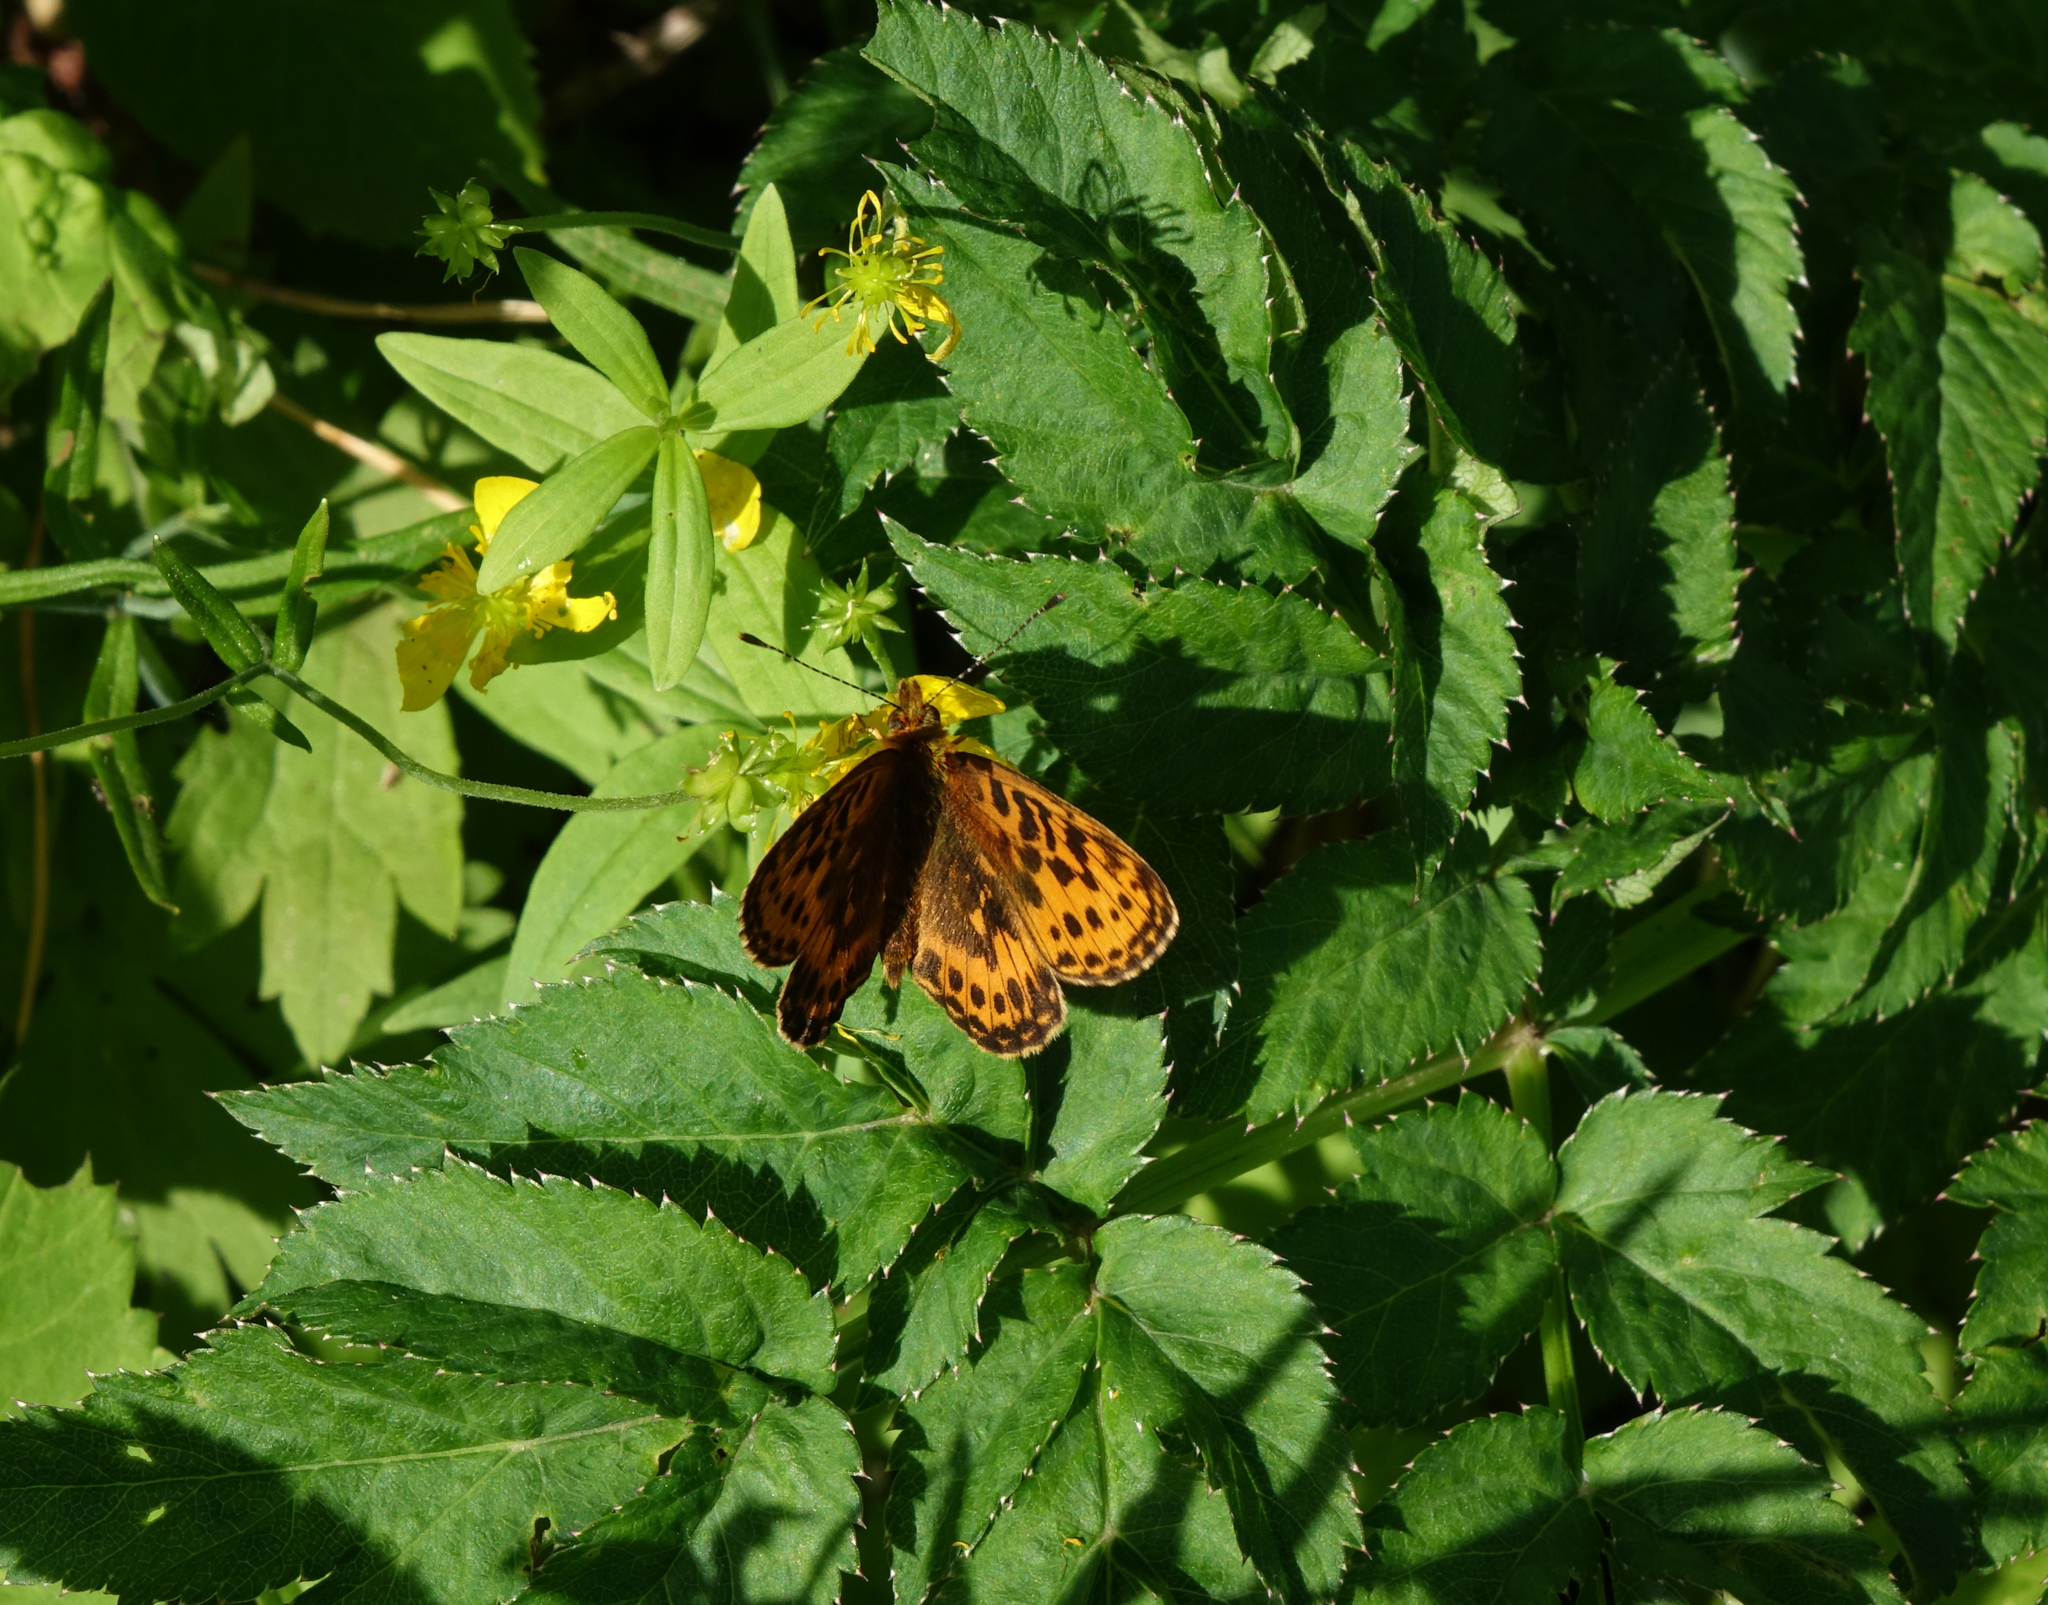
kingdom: Animalia
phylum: Arthropoda
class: Insecta
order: Lepidoptera
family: Nymphalidae
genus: Boloria
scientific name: Boloria thore
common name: Thor's fritillary
